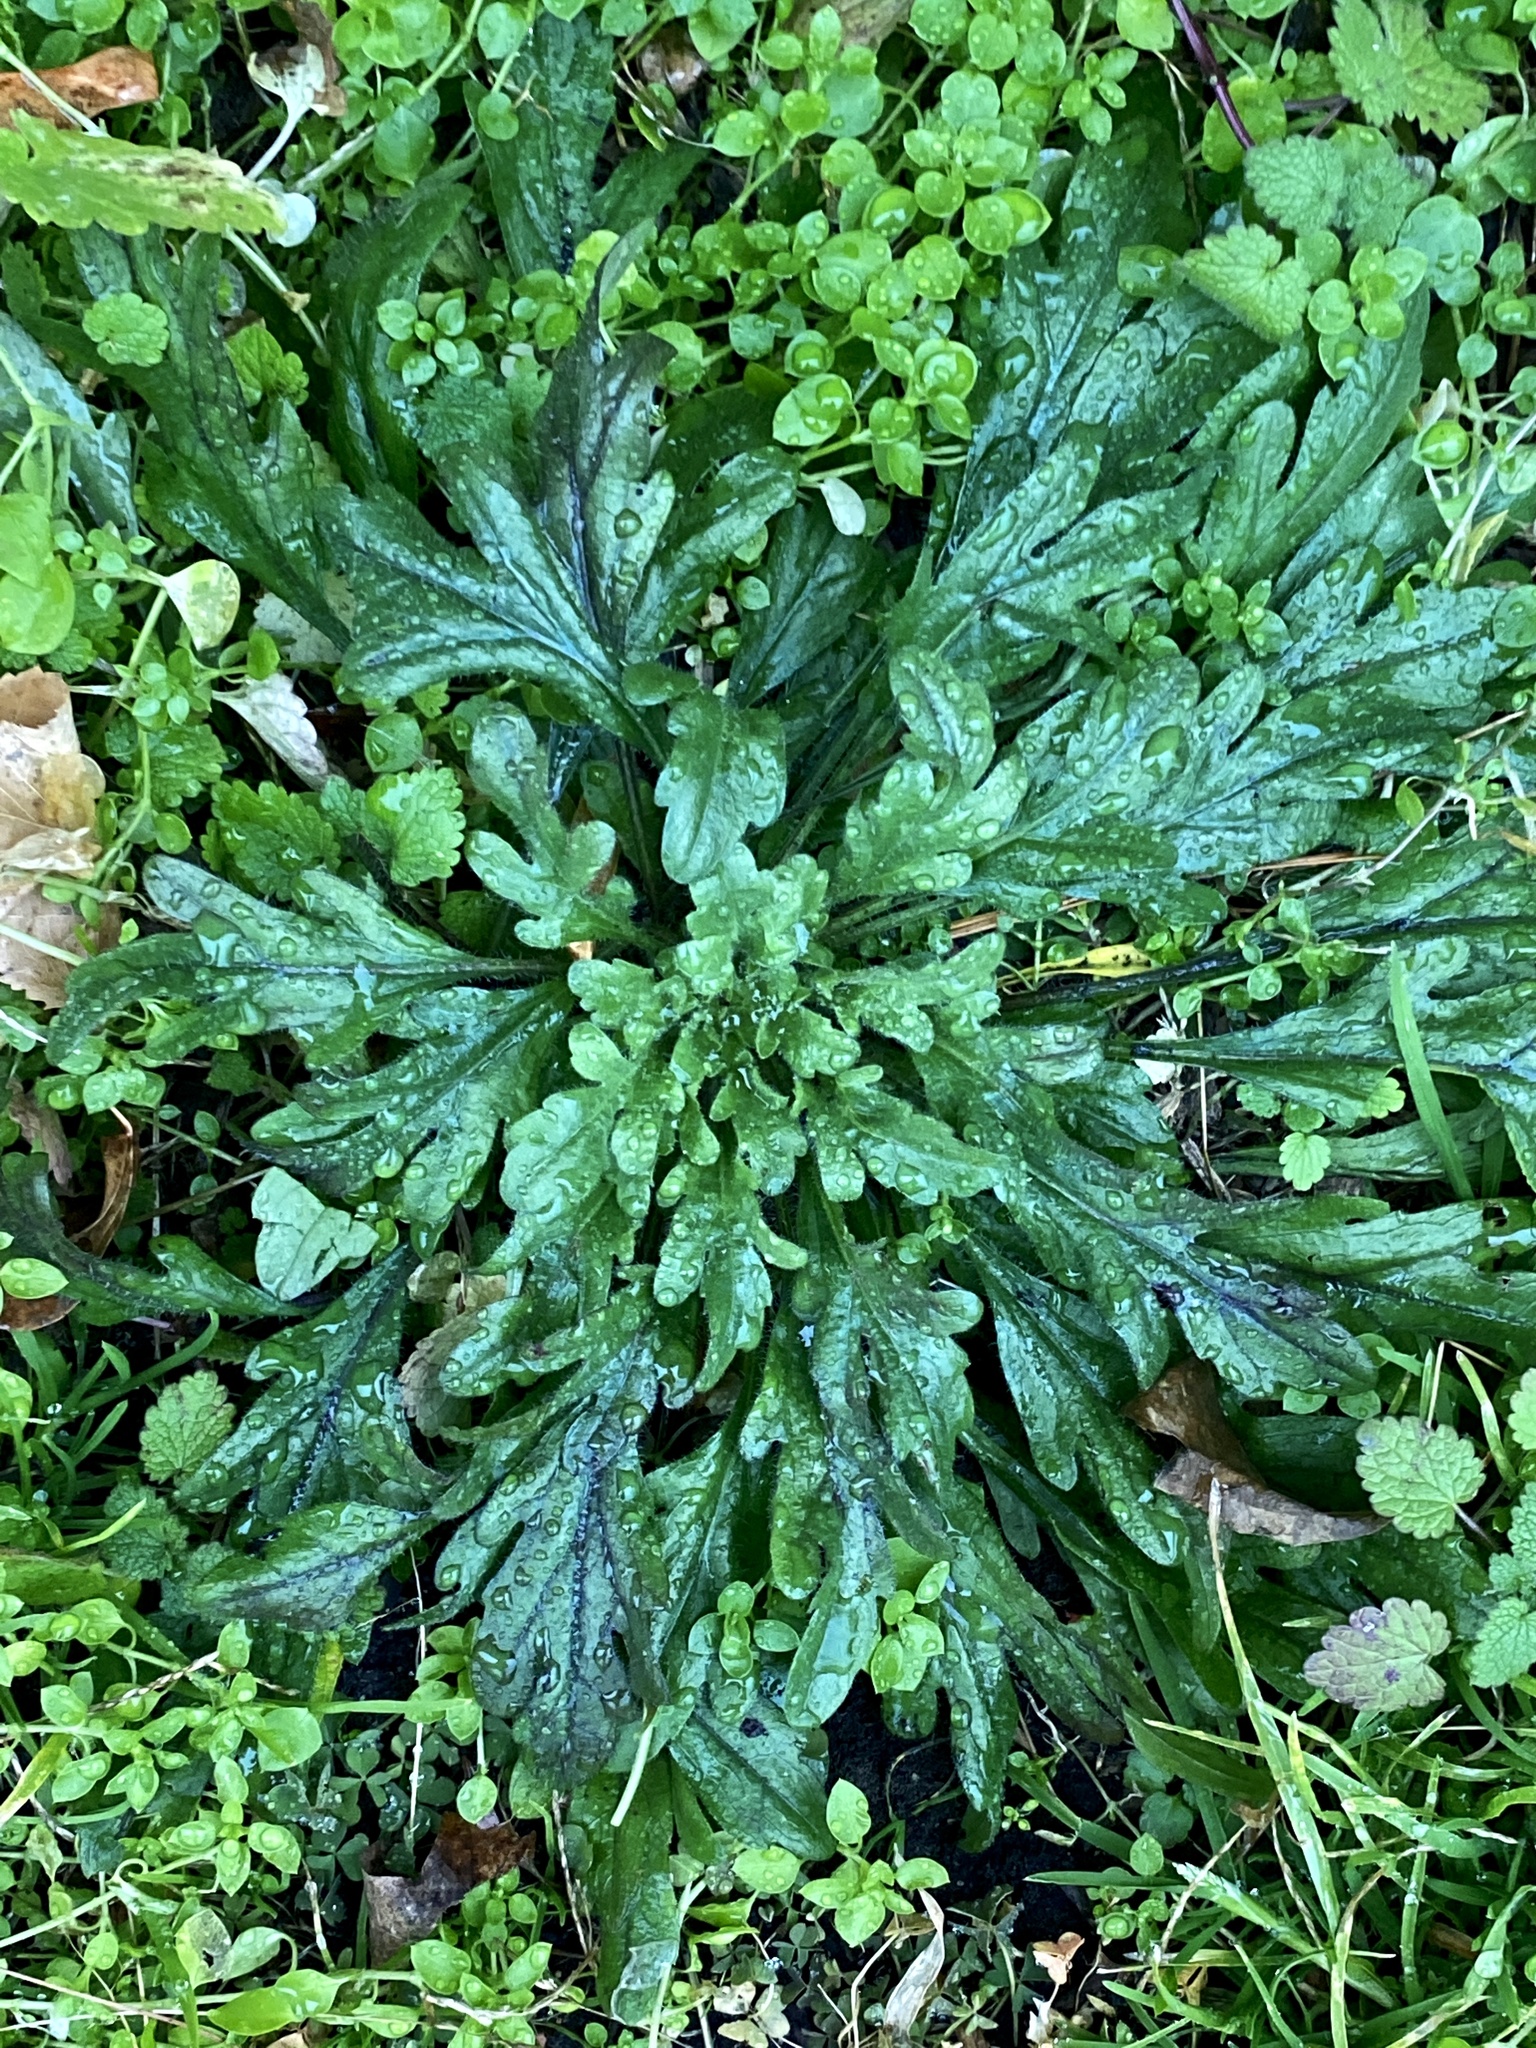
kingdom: Plantae
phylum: Tracheophyta
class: Magnoliopsida
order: Asterales
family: Asteraceae
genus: Erigeron
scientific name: Erigeron canadensis
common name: Canadian fleabane
